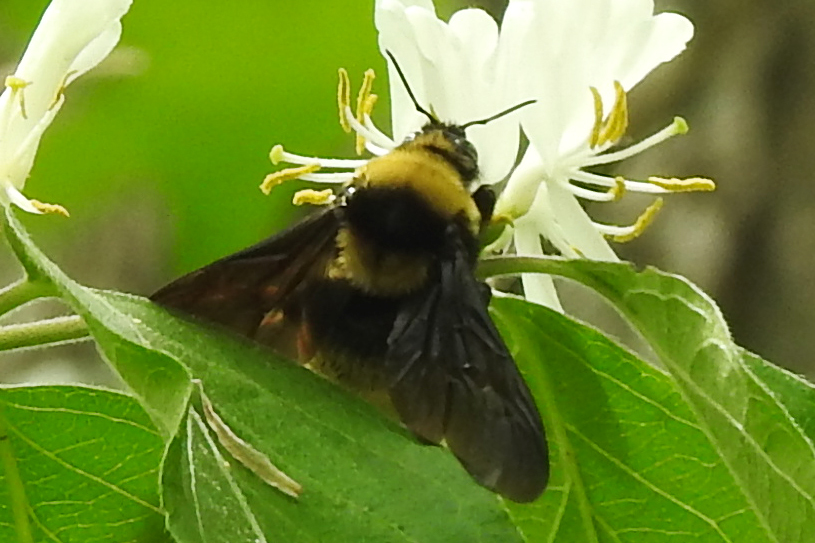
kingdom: Animalia
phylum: Arthropoda
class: Insecta
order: Hymenoptera
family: Apidae
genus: Bombus
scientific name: Bombus auricomus
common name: Black and gold bumble bee
